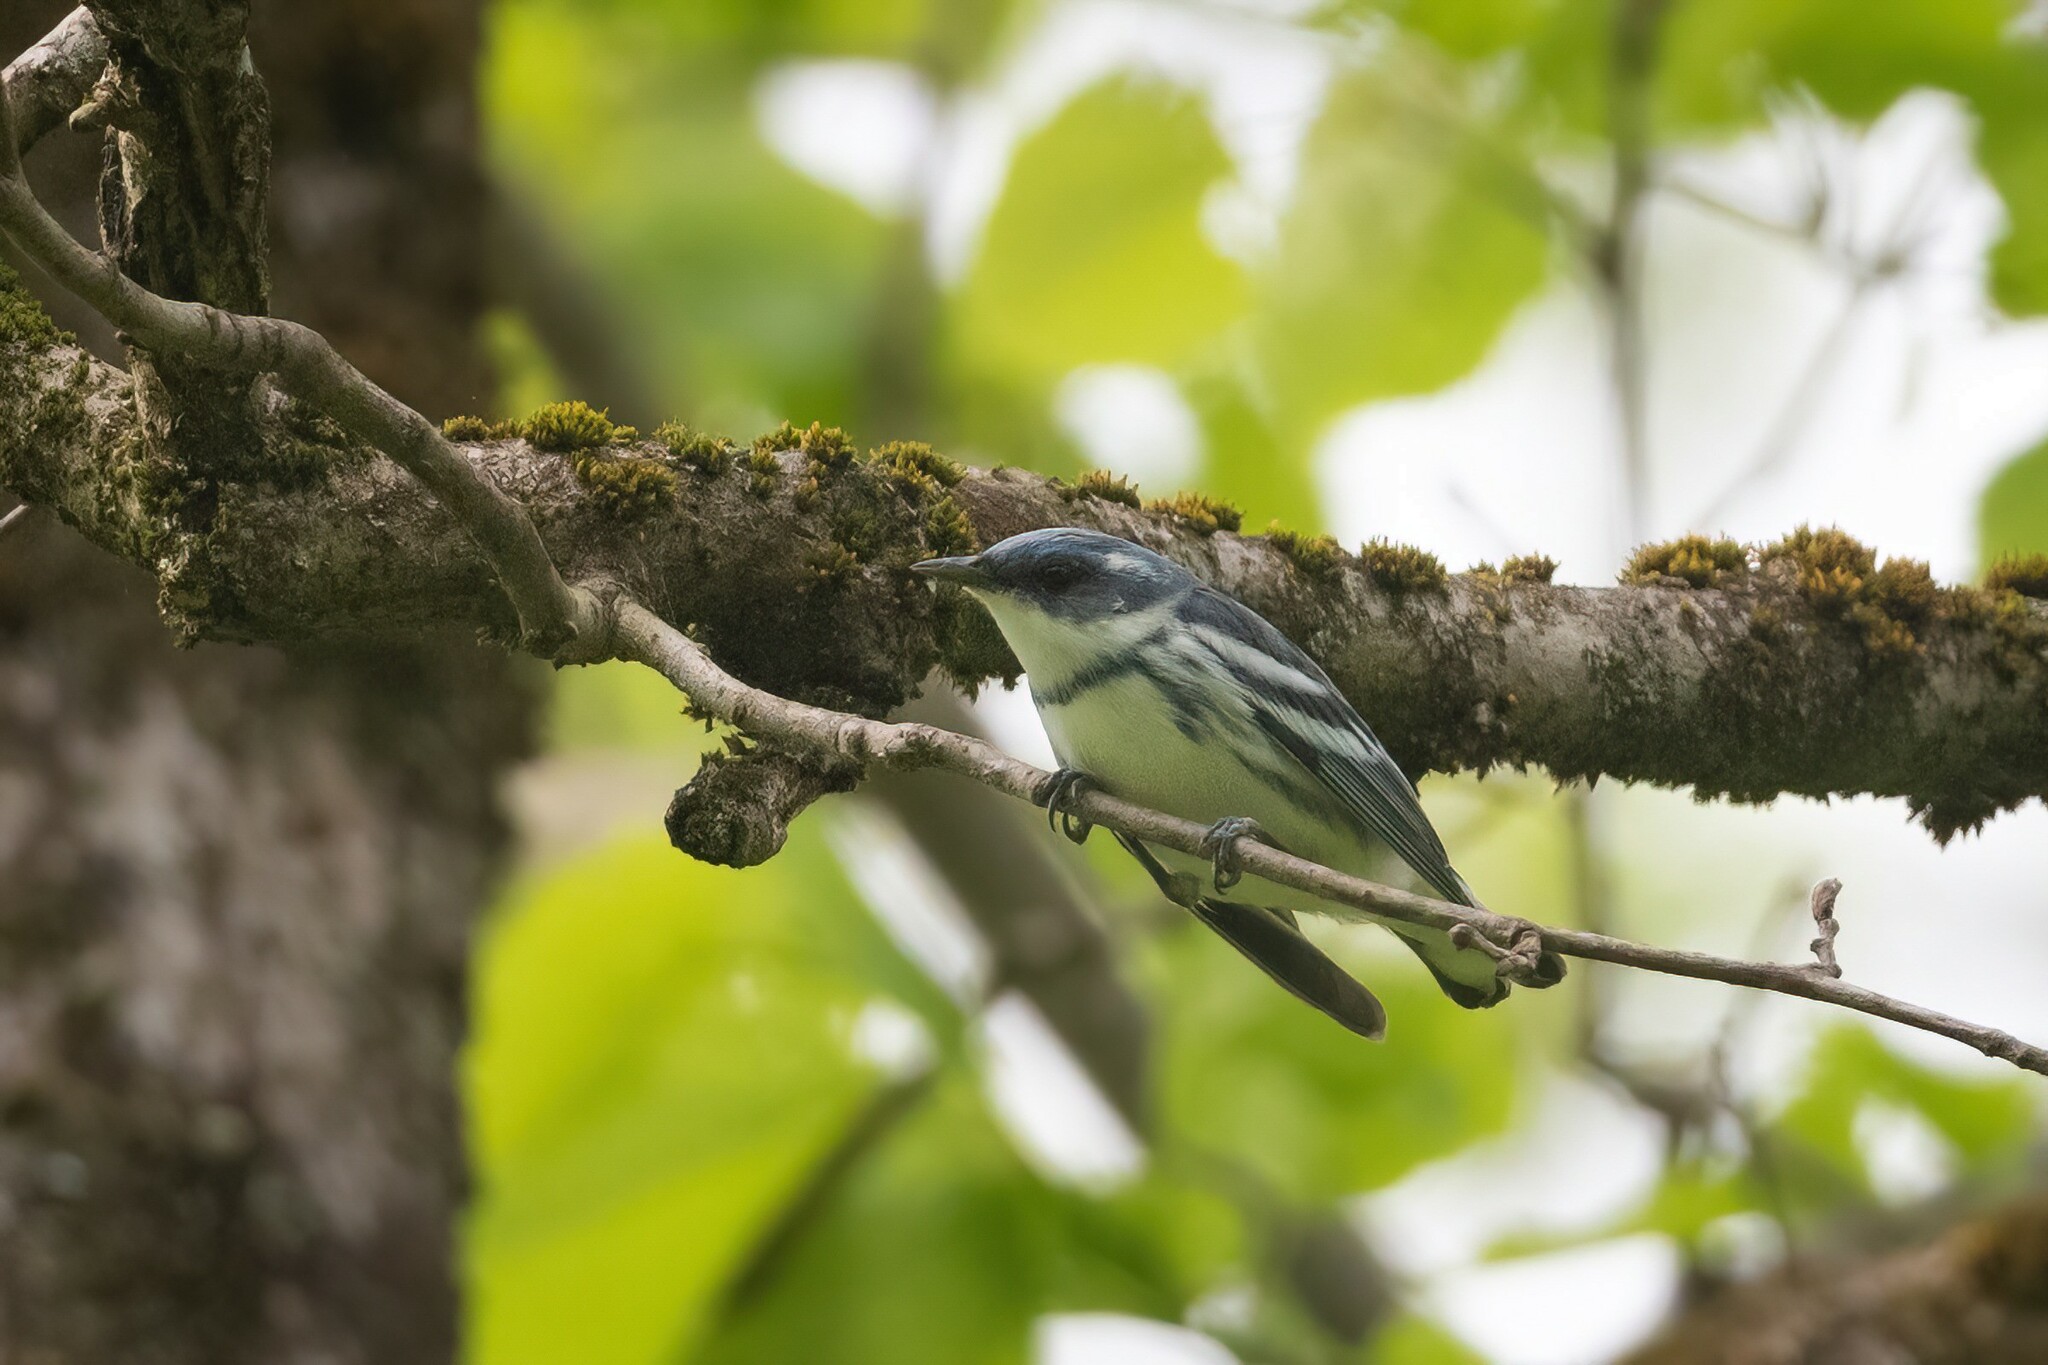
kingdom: Animalia
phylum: Chordata
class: Aves
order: Passeriformes
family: Parulidae
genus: Setophaga
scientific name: Setophaga cerulea
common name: Cerulean warbler
